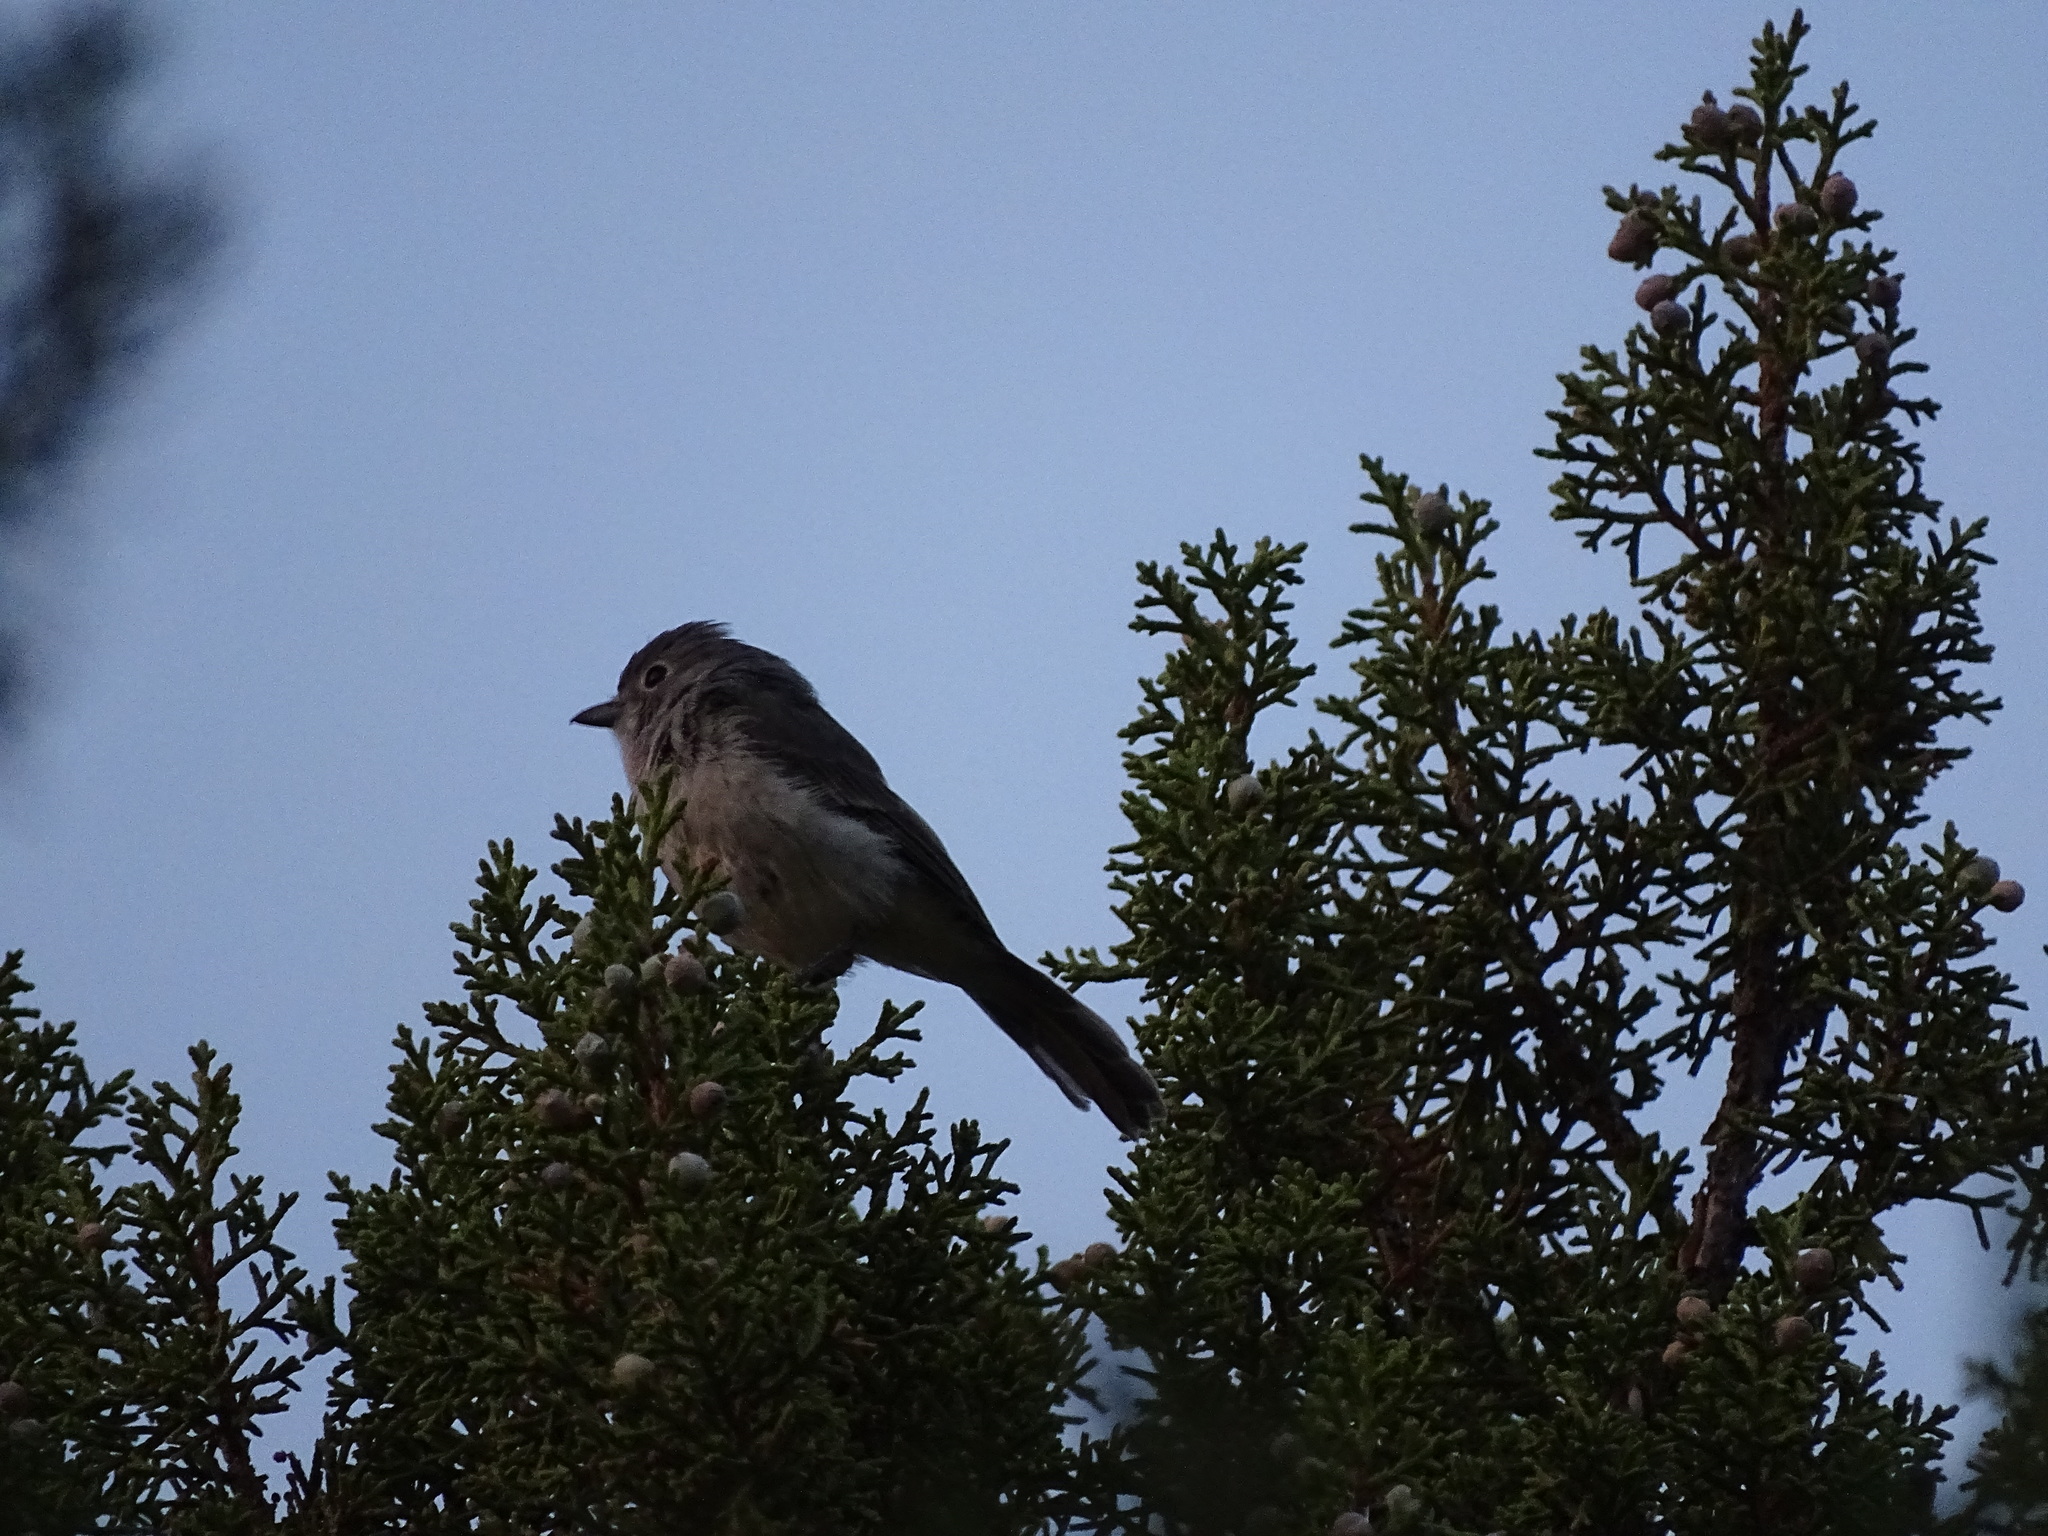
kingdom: Animalia
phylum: Chordata
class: Aves
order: Passeriformes
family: Vireonidae
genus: Vireo
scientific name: Vireo vicinior
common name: Gray vireo
